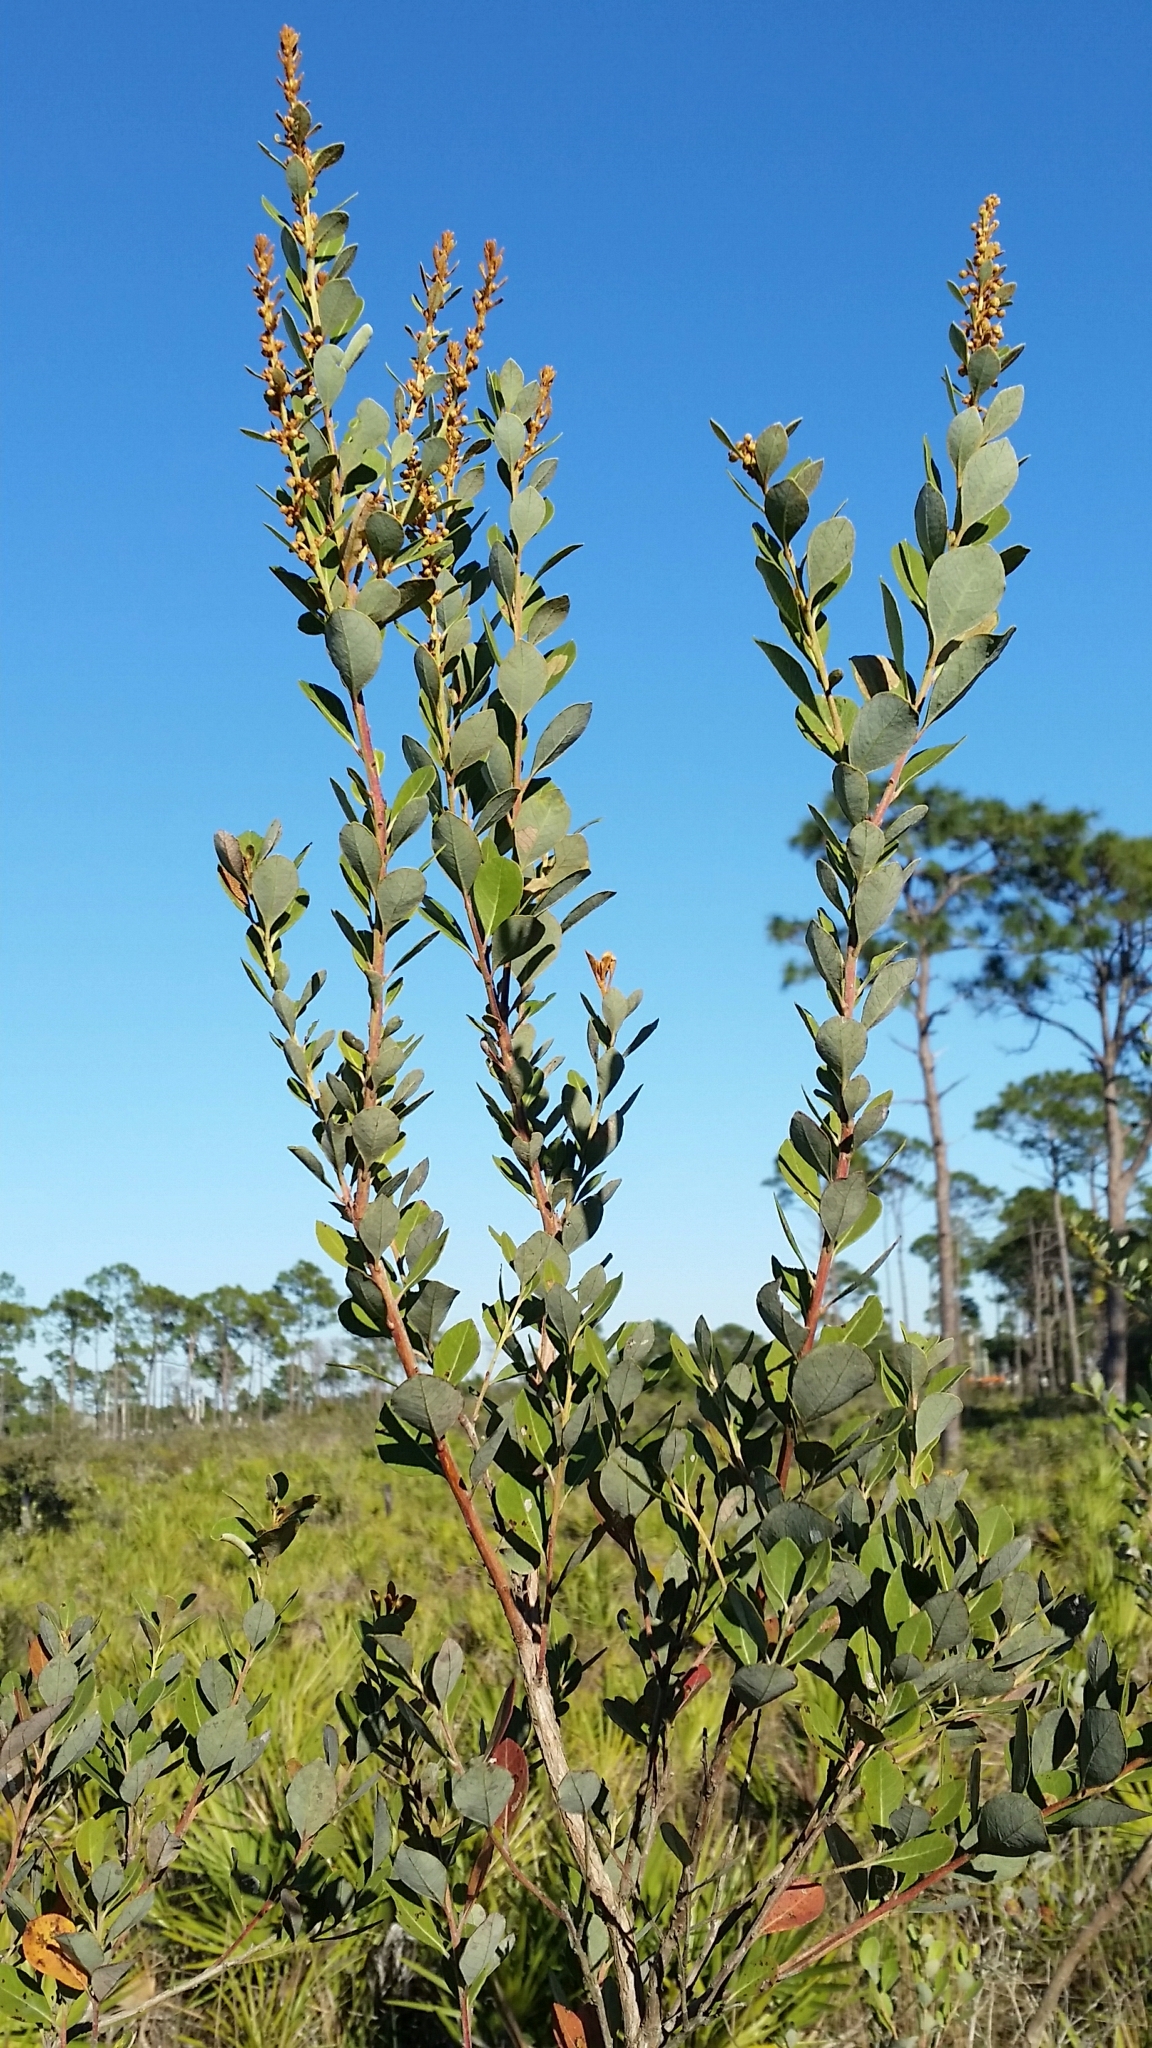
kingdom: Plantae
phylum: Tracheophyta
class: Magnoliopsida
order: Ericales
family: Ericaceae
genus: Lyonia
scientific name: Lyonia fruticosa
